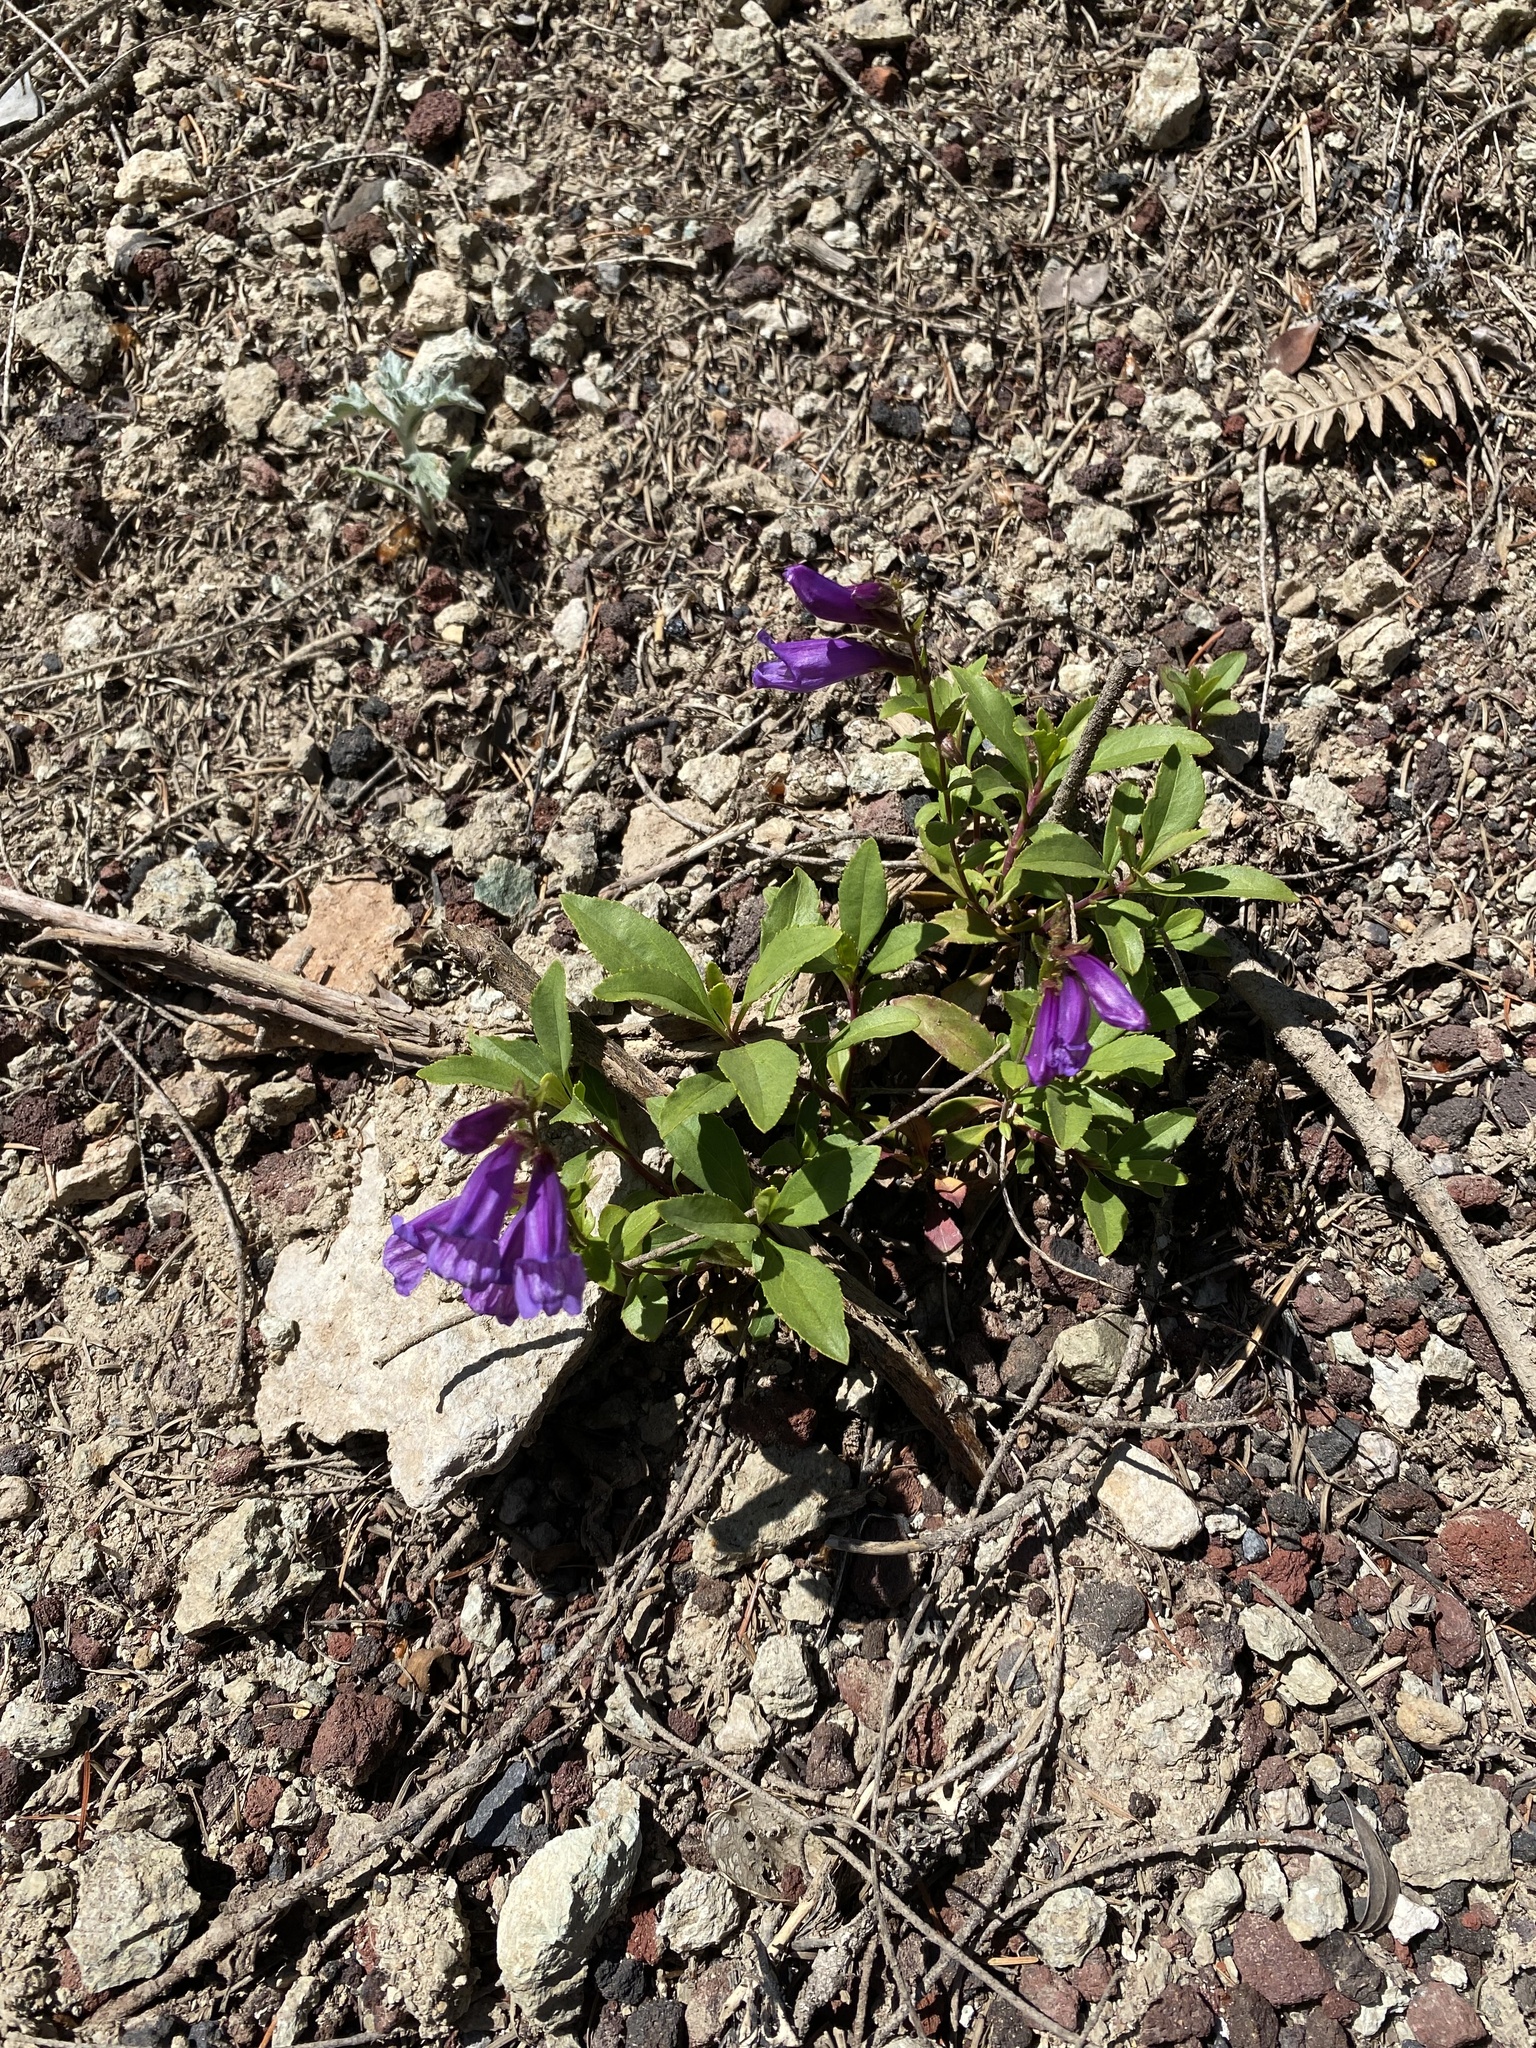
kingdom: Plantae
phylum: Tracheophyta
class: Magnoliopsida
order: Lamiales
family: Plantaginaceae
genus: Penstemon
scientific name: Penstemon cardwellii
